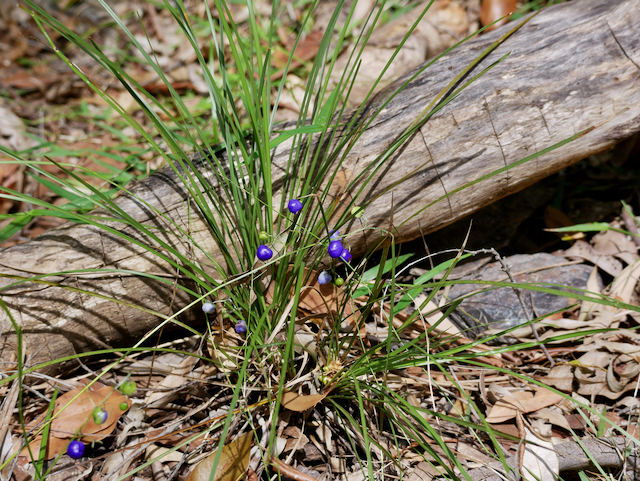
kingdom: Plantae
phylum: Tracheophyta
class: Liliopsida
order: Asparagales
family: Asphodelaceae
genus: Dianella
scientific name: Dianella caerulea
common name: Blue flax-lily
